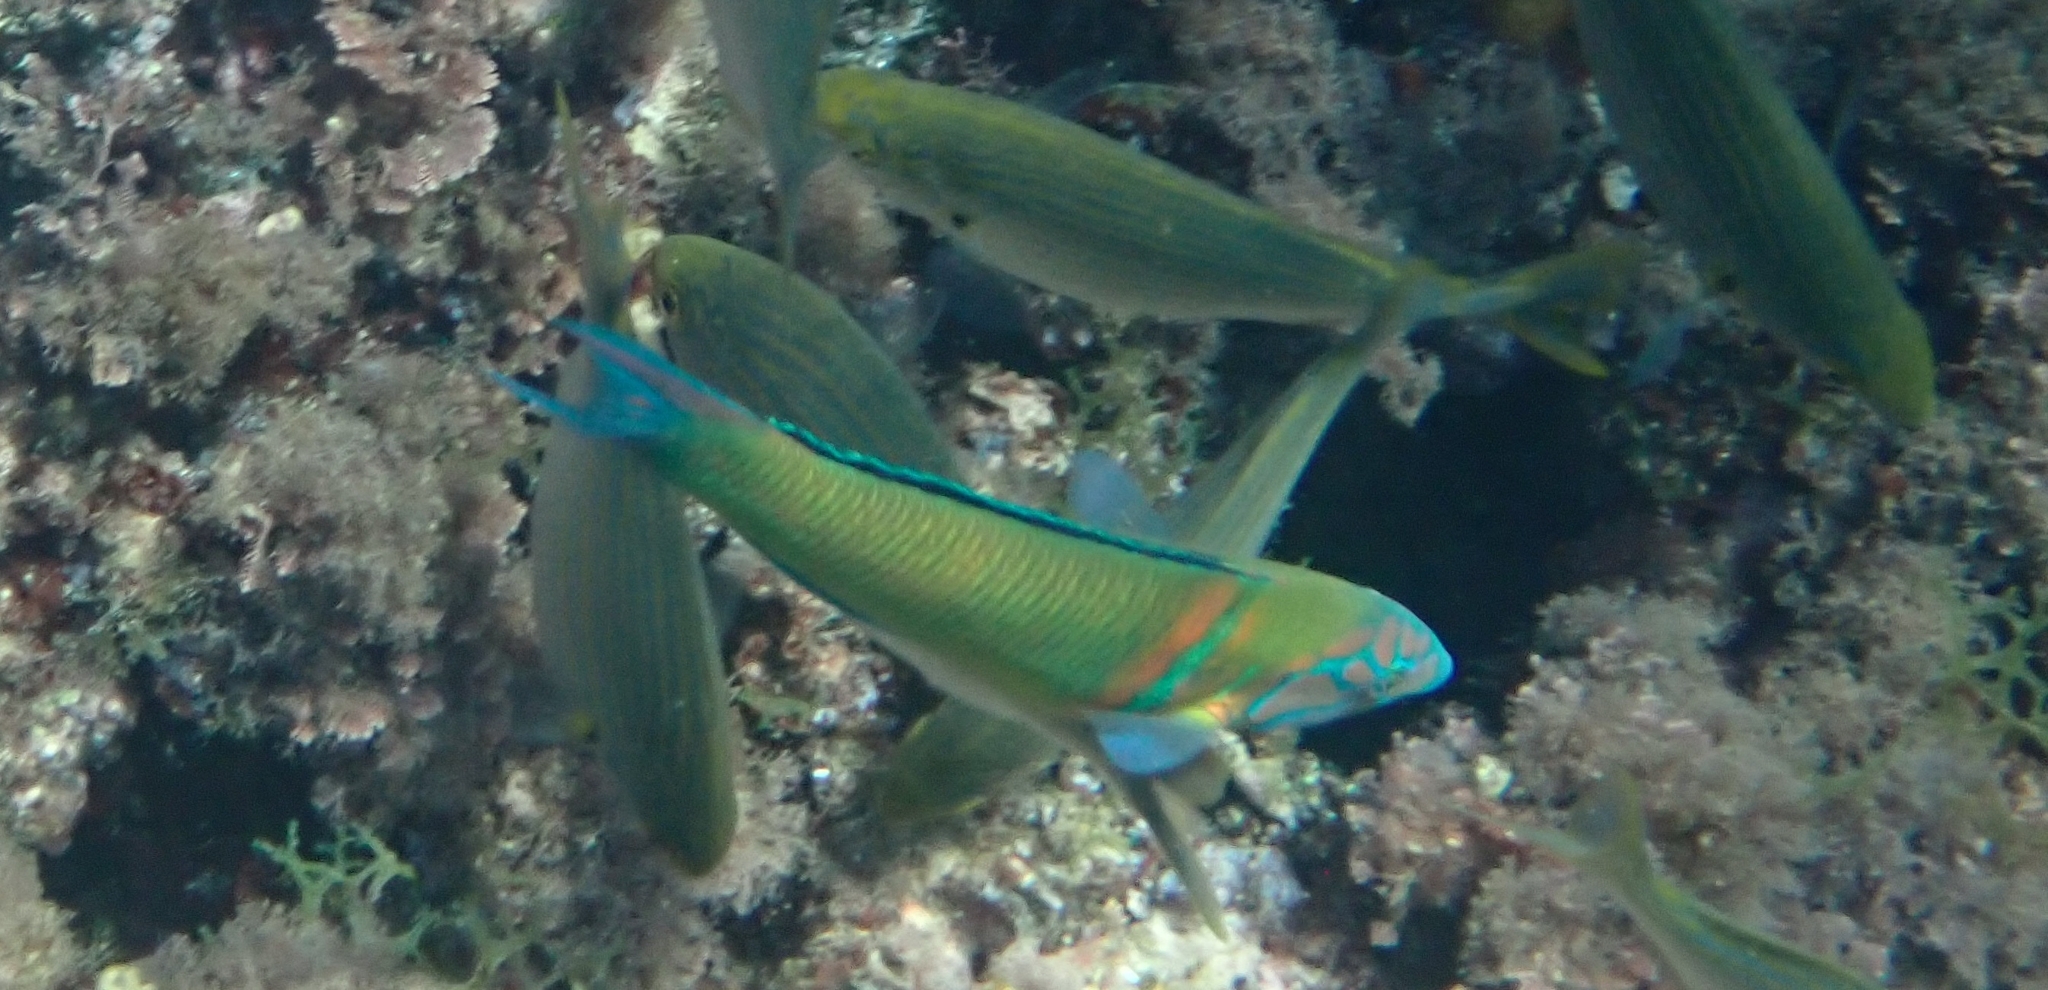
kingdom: Animalia
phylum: Chordata
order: Perciformes
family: Labridae
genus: Thalassoma
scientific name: Thalassoma pavo
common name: Ornate wrasse
